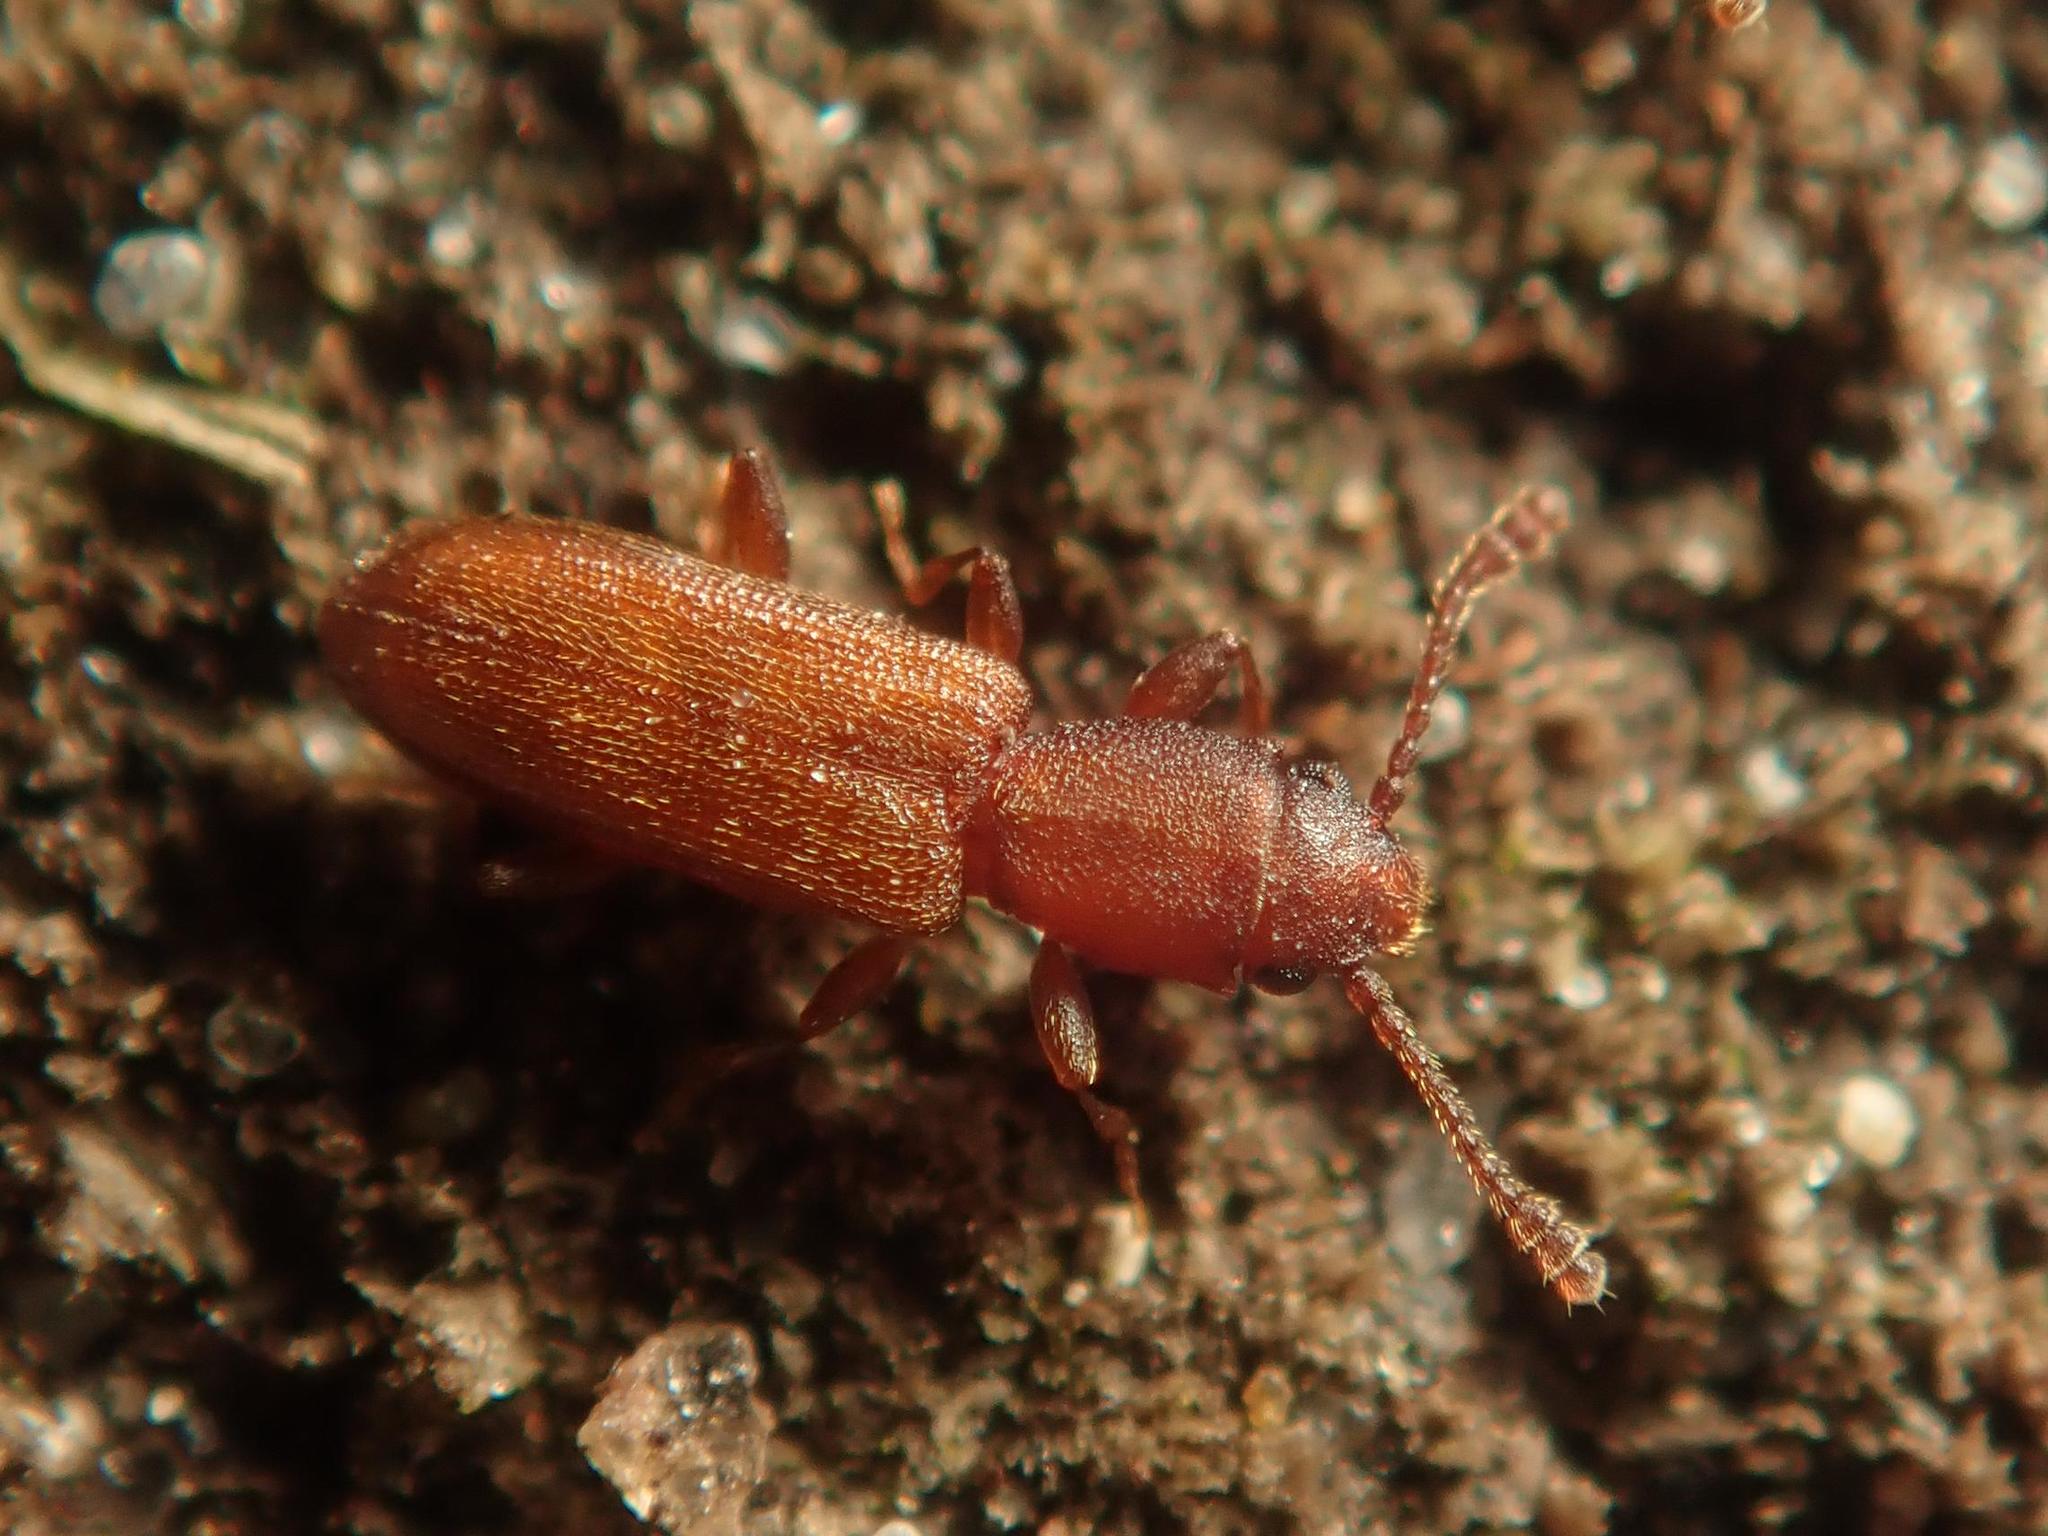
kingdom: Animalia
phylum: Arthropoda
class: Insecta
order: Coleoptera
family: Silvanidae
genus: Silvanus
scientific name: Silvanus unidentatus
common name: One-toothed silvan flat bark beetle
